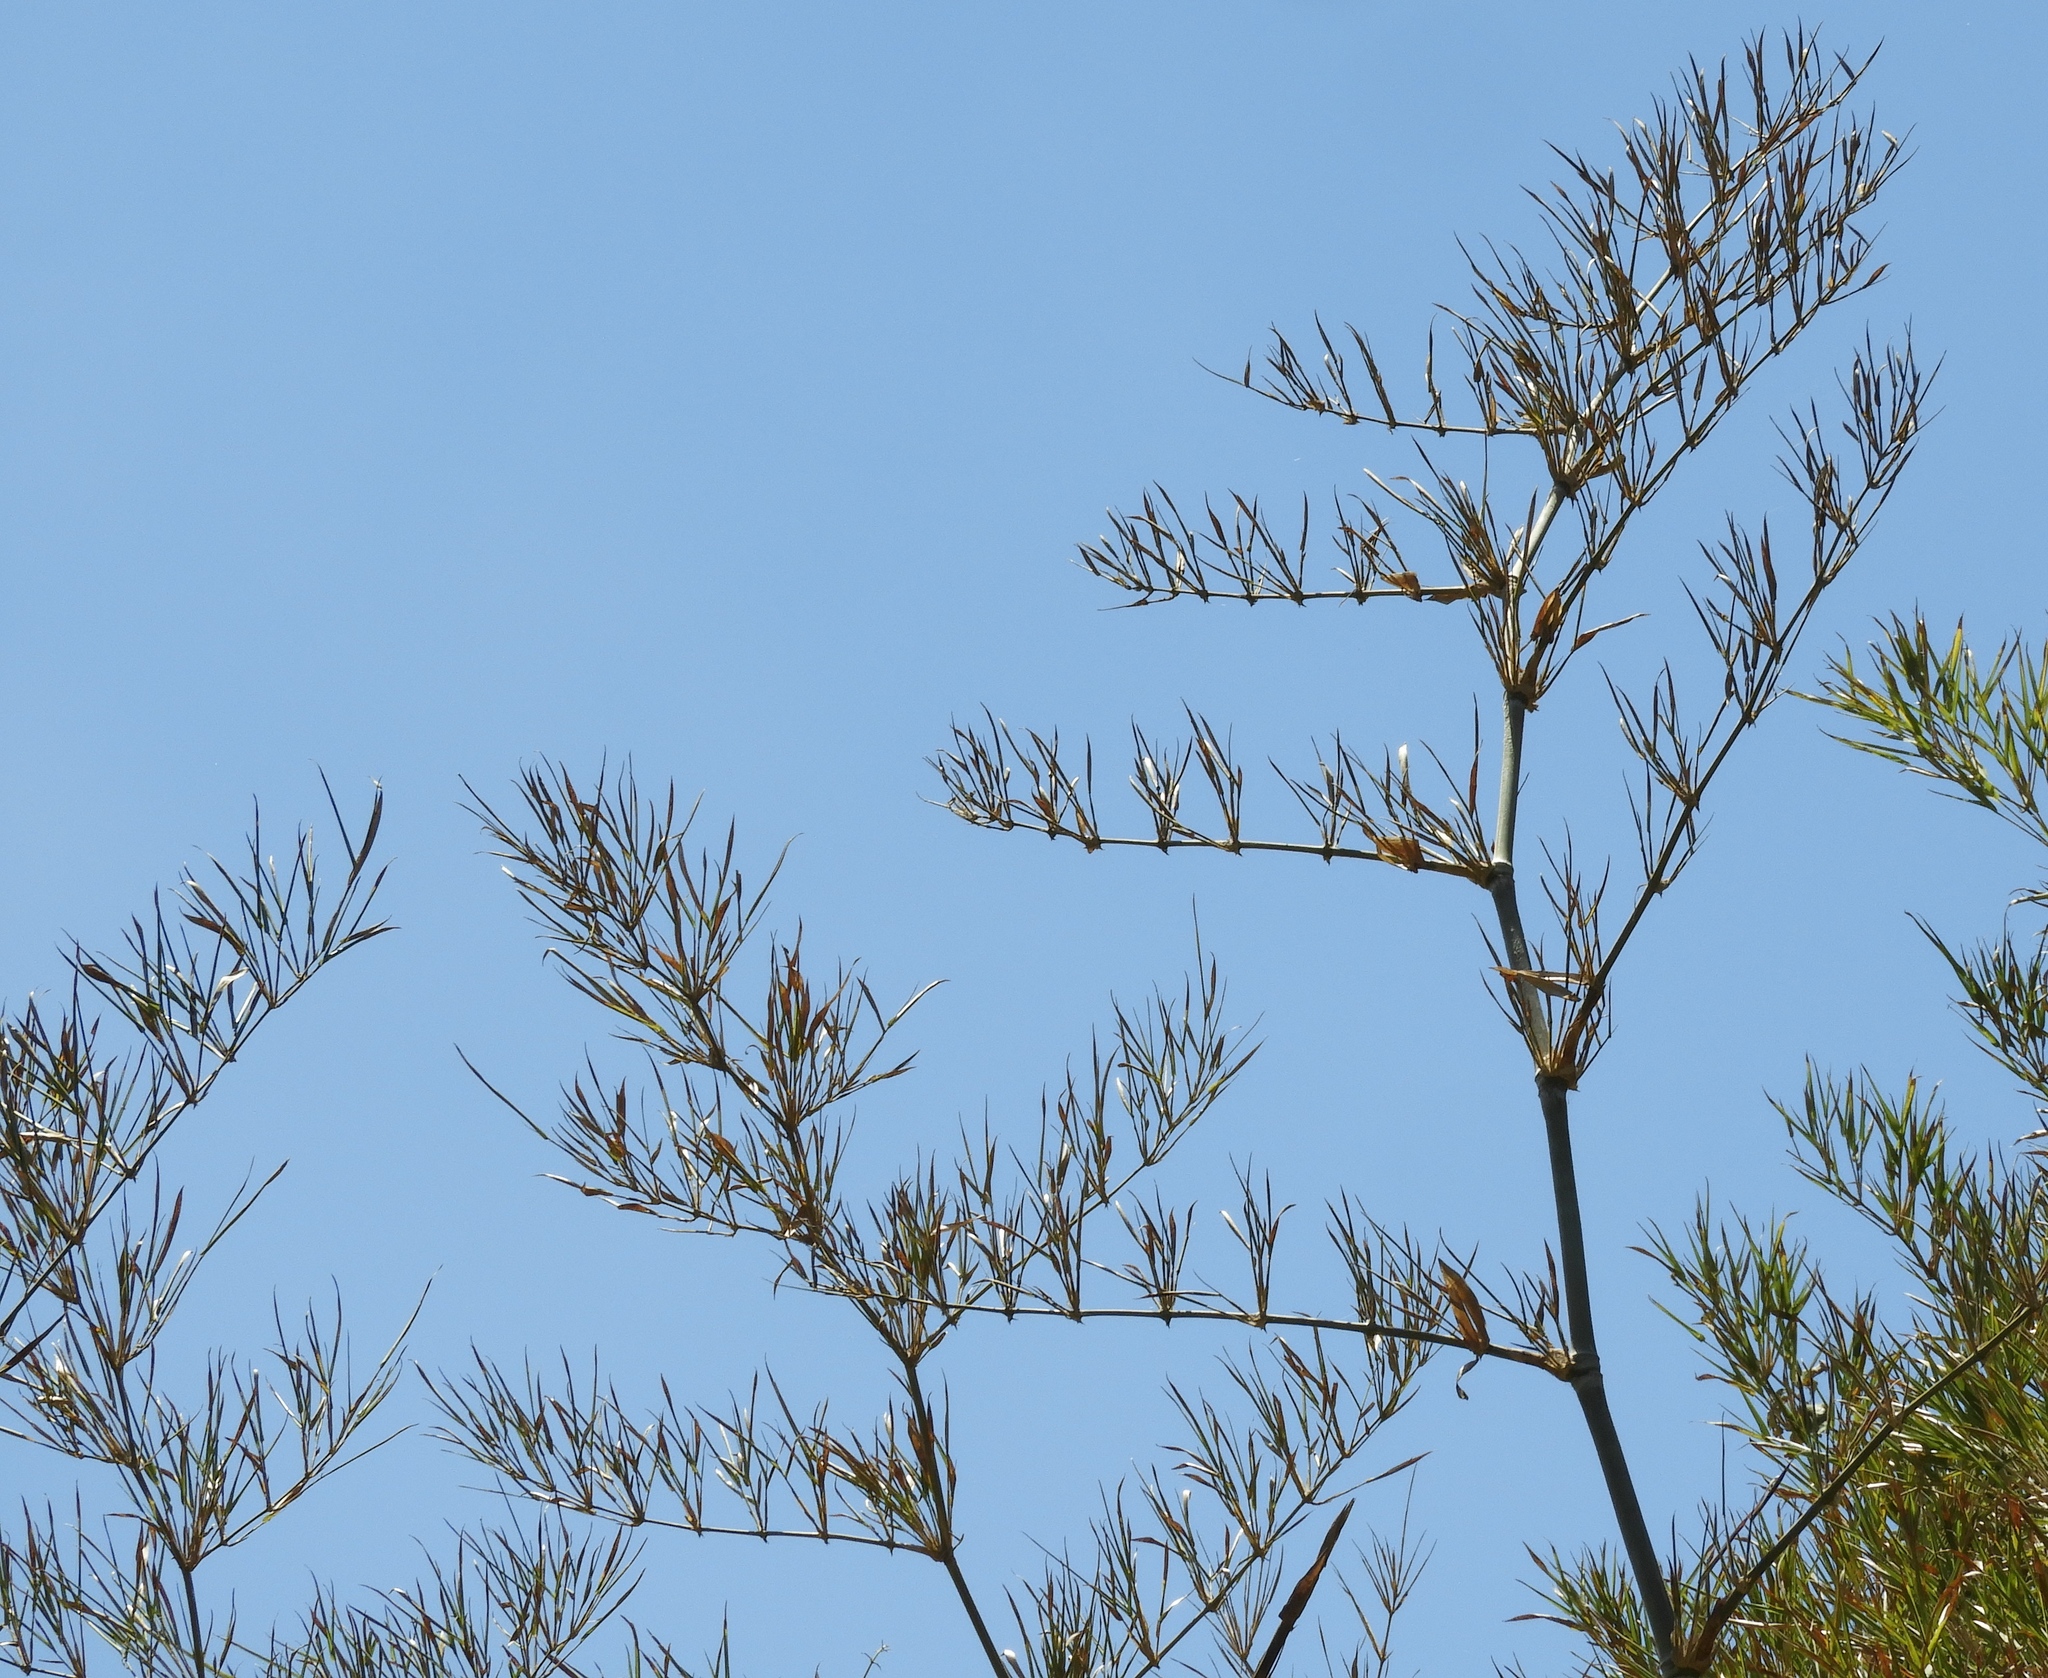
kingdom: Plantae
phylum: Tracheophyta
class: Liliopsida
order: Poales
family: Poaceae
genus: Guadua
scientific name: Guadua paniculata
